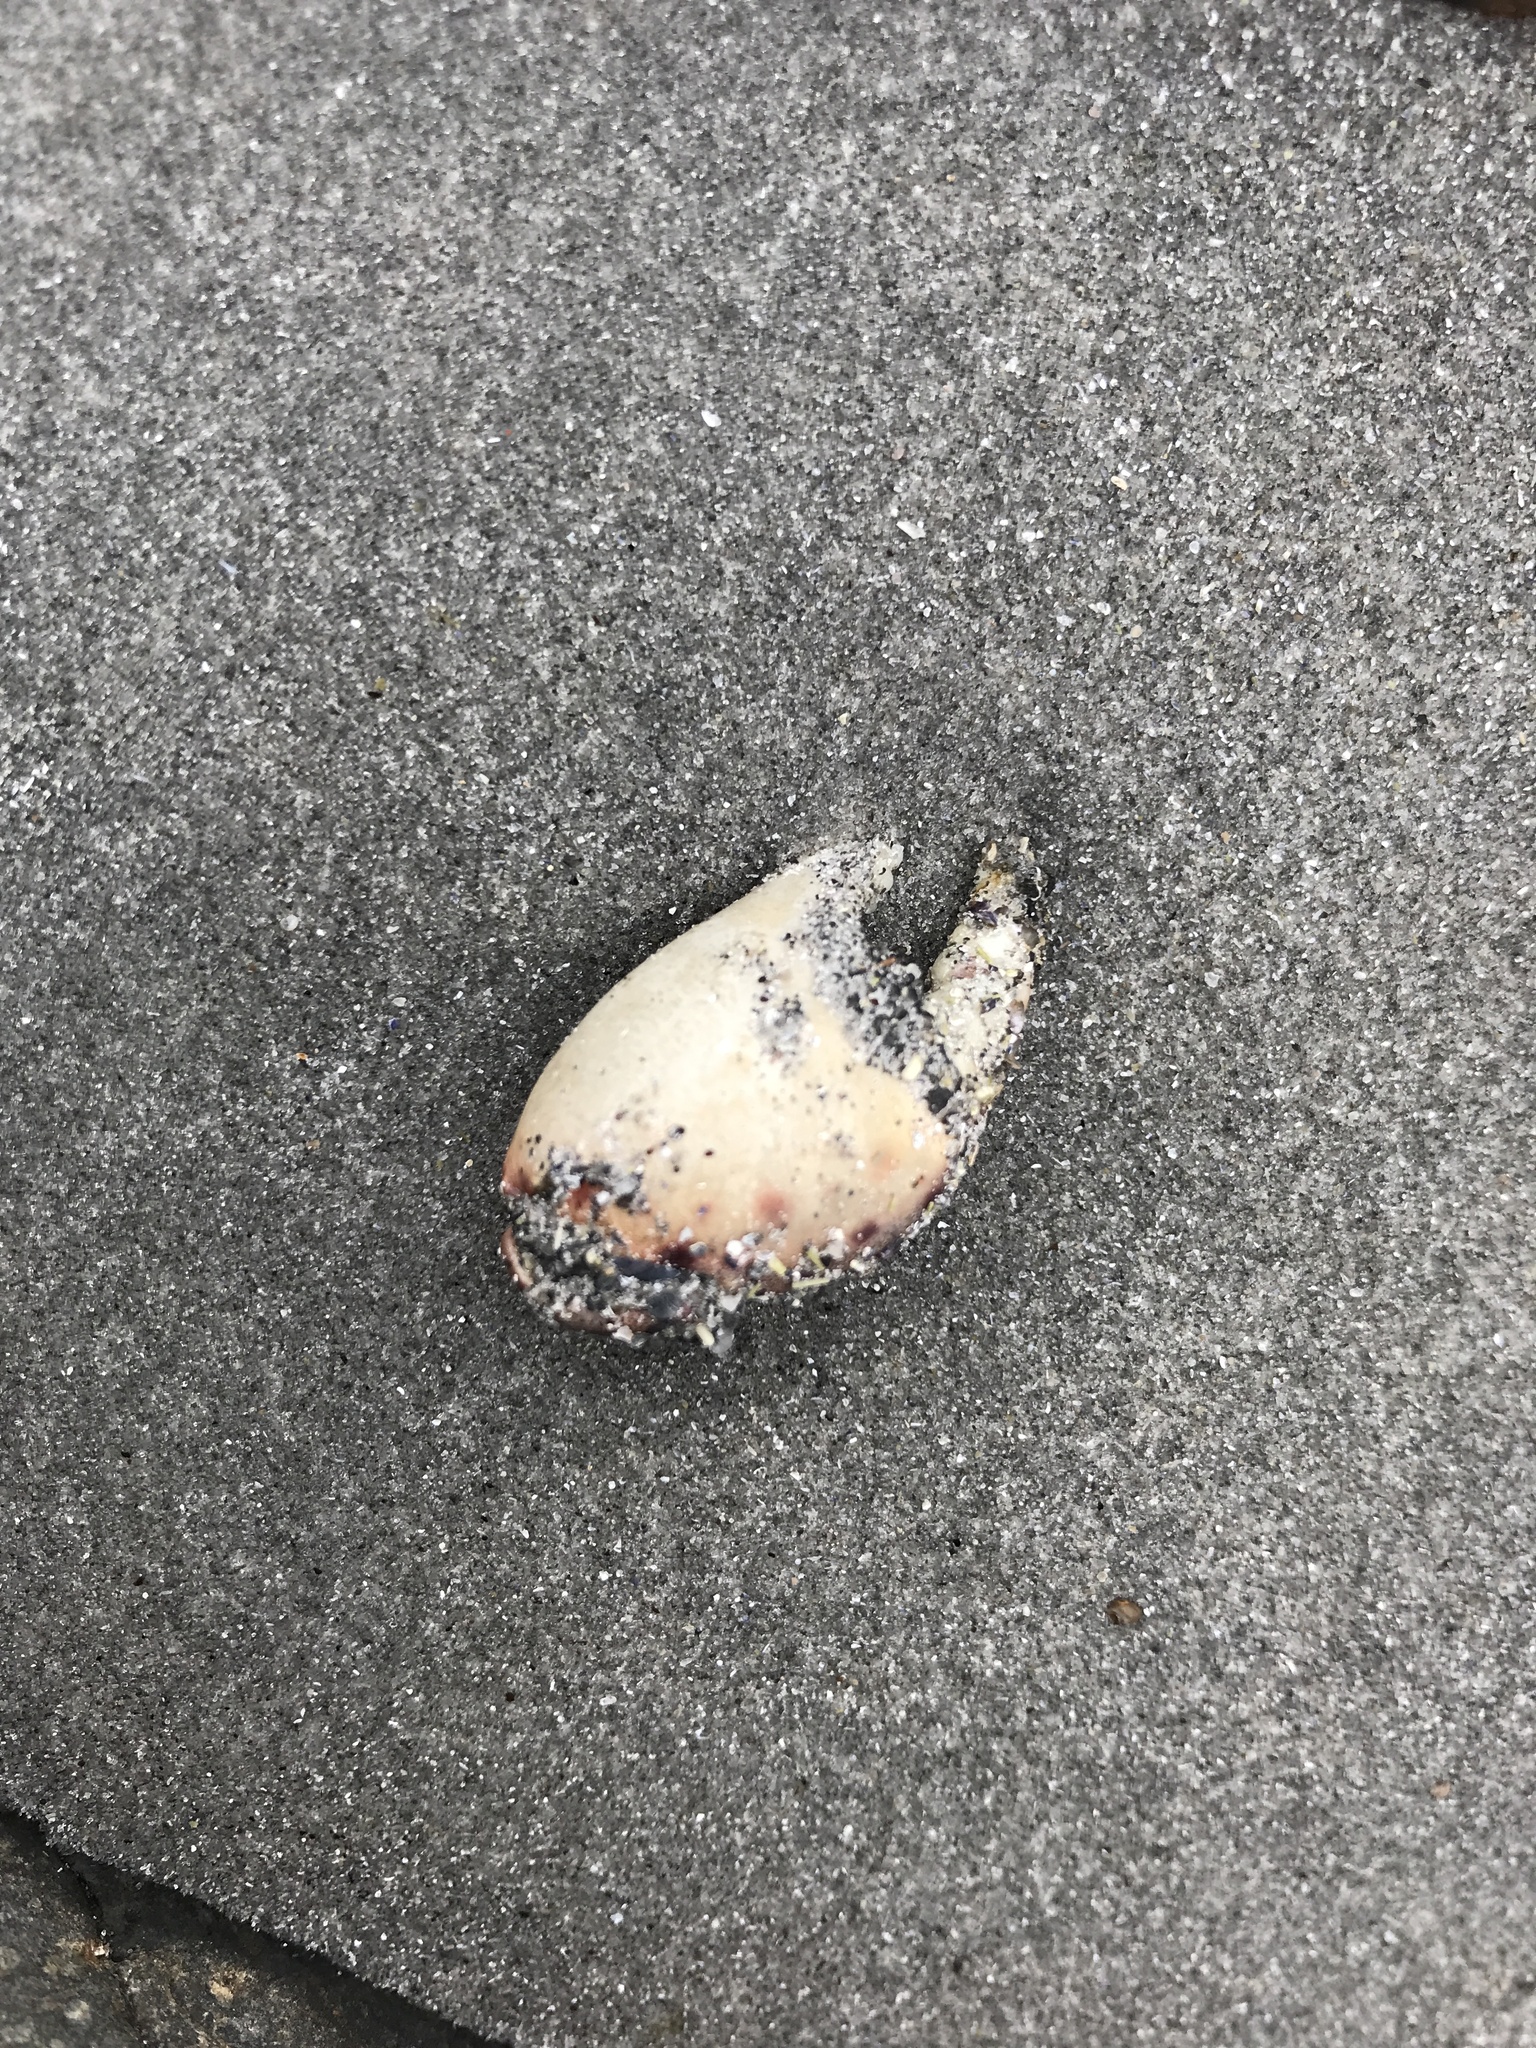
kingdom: Animalia
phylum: Arthropoda
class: Malacostraca
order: Decapoda
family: Nephropidae
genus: Homarus
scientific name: Homarus americanus
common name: American lobster
